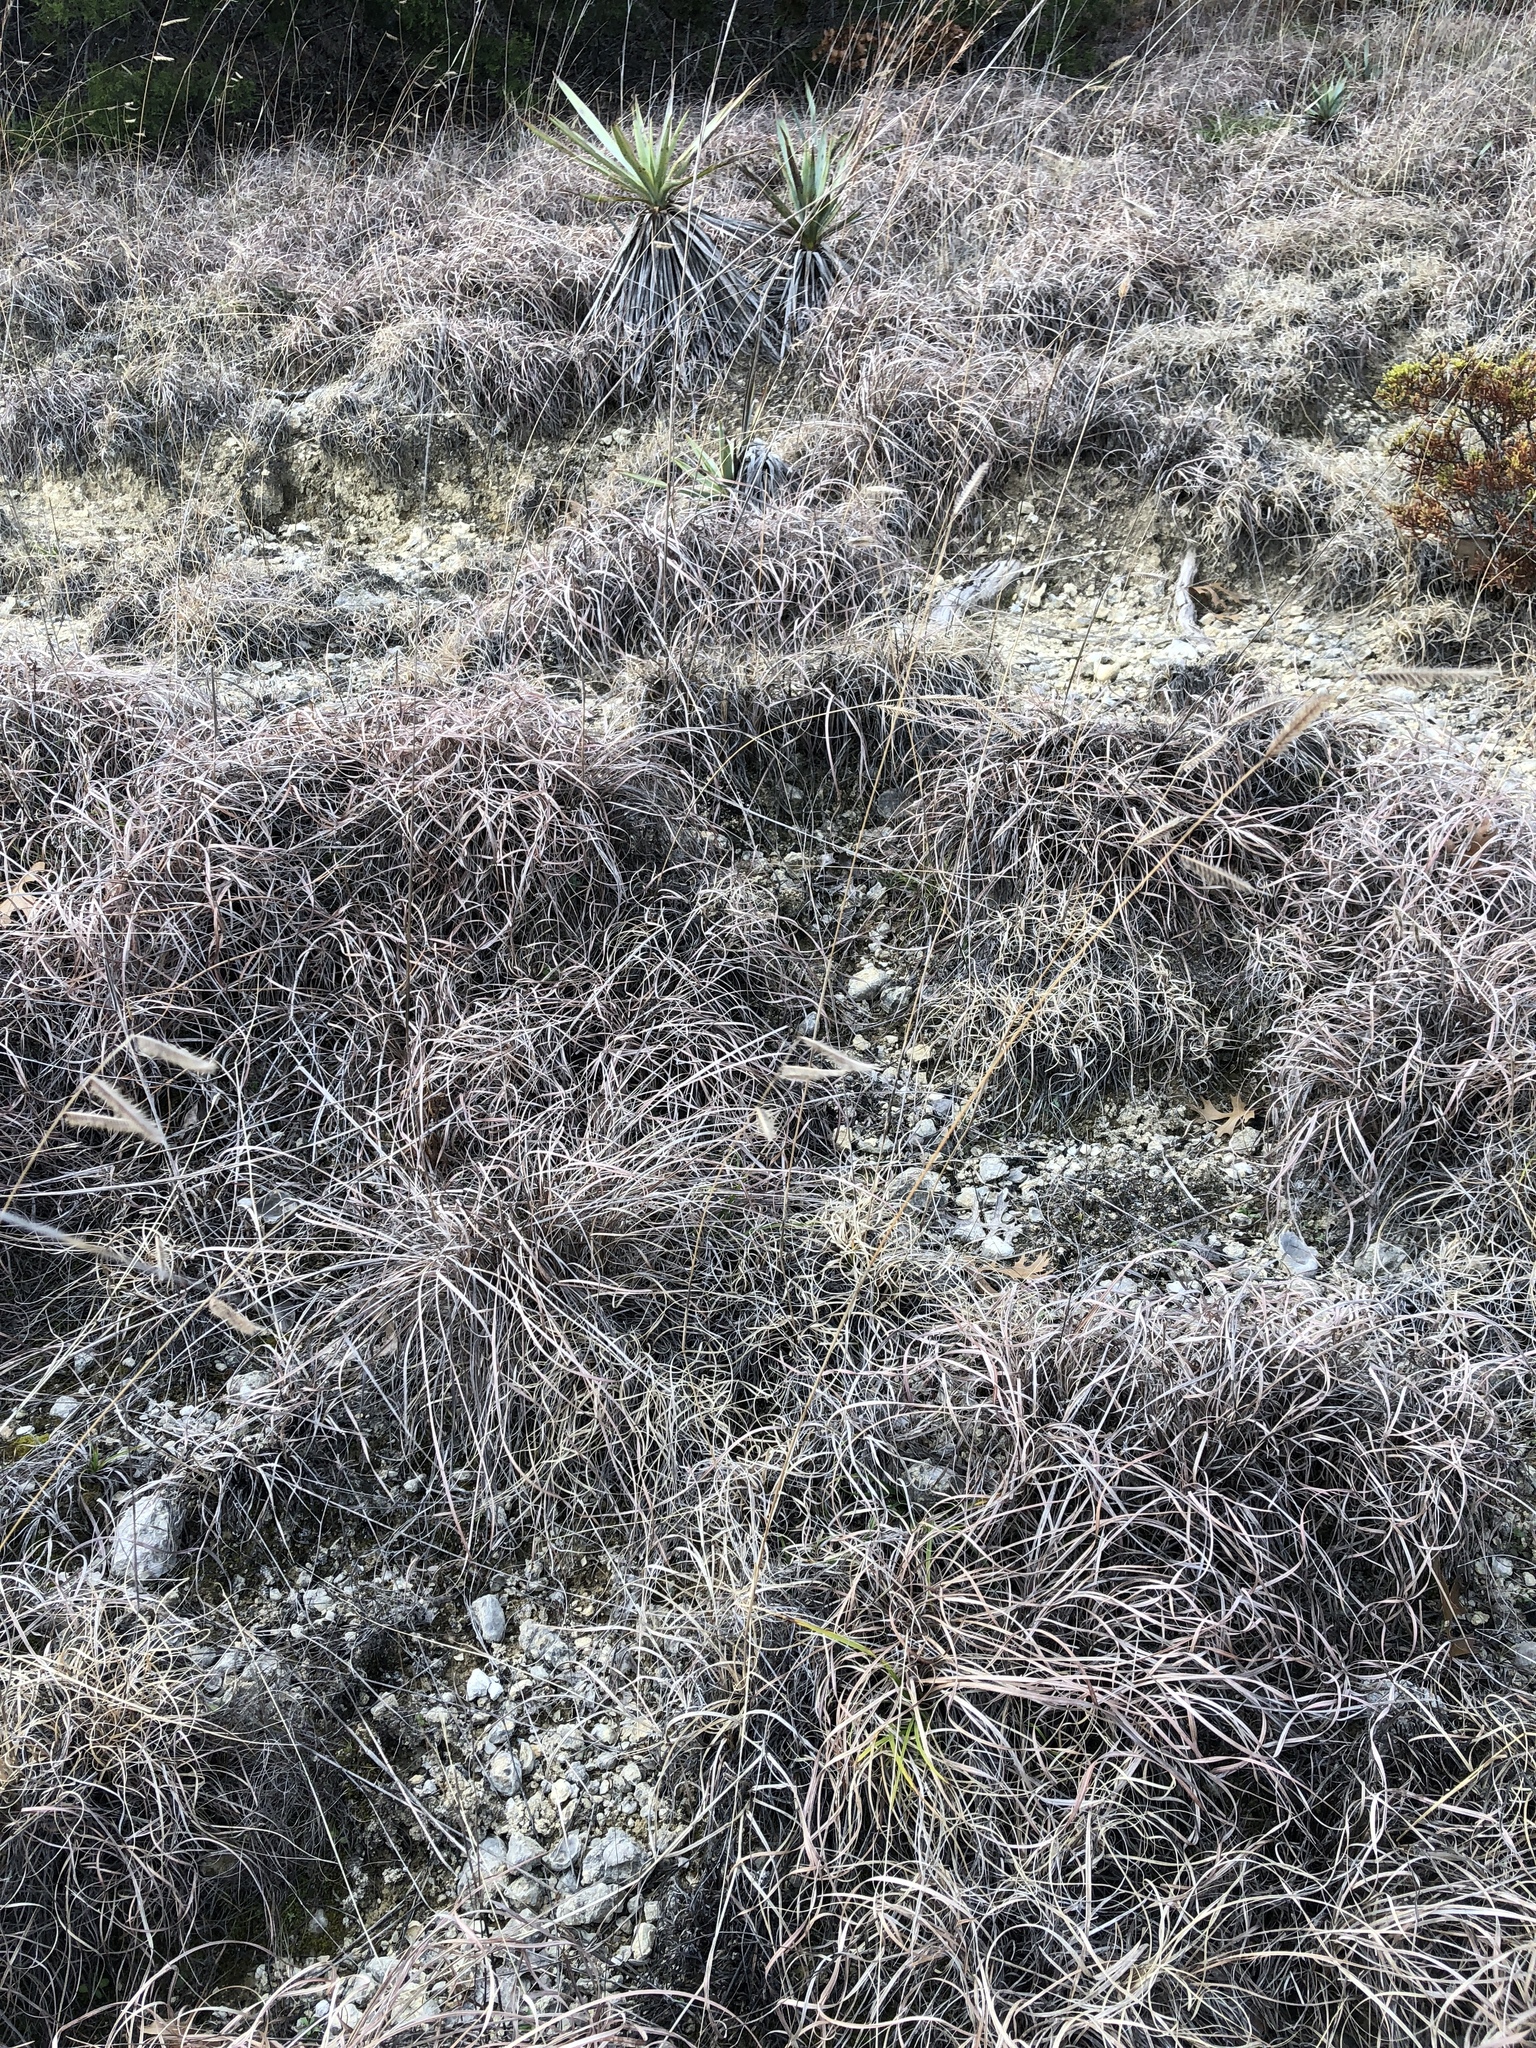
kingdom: Plantae
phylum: Tracheophyta
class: Liliopsida
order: Poales
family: Poaceae
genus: Bouteloua
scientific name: Bouteloua hirsuta
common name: Hairy grama
